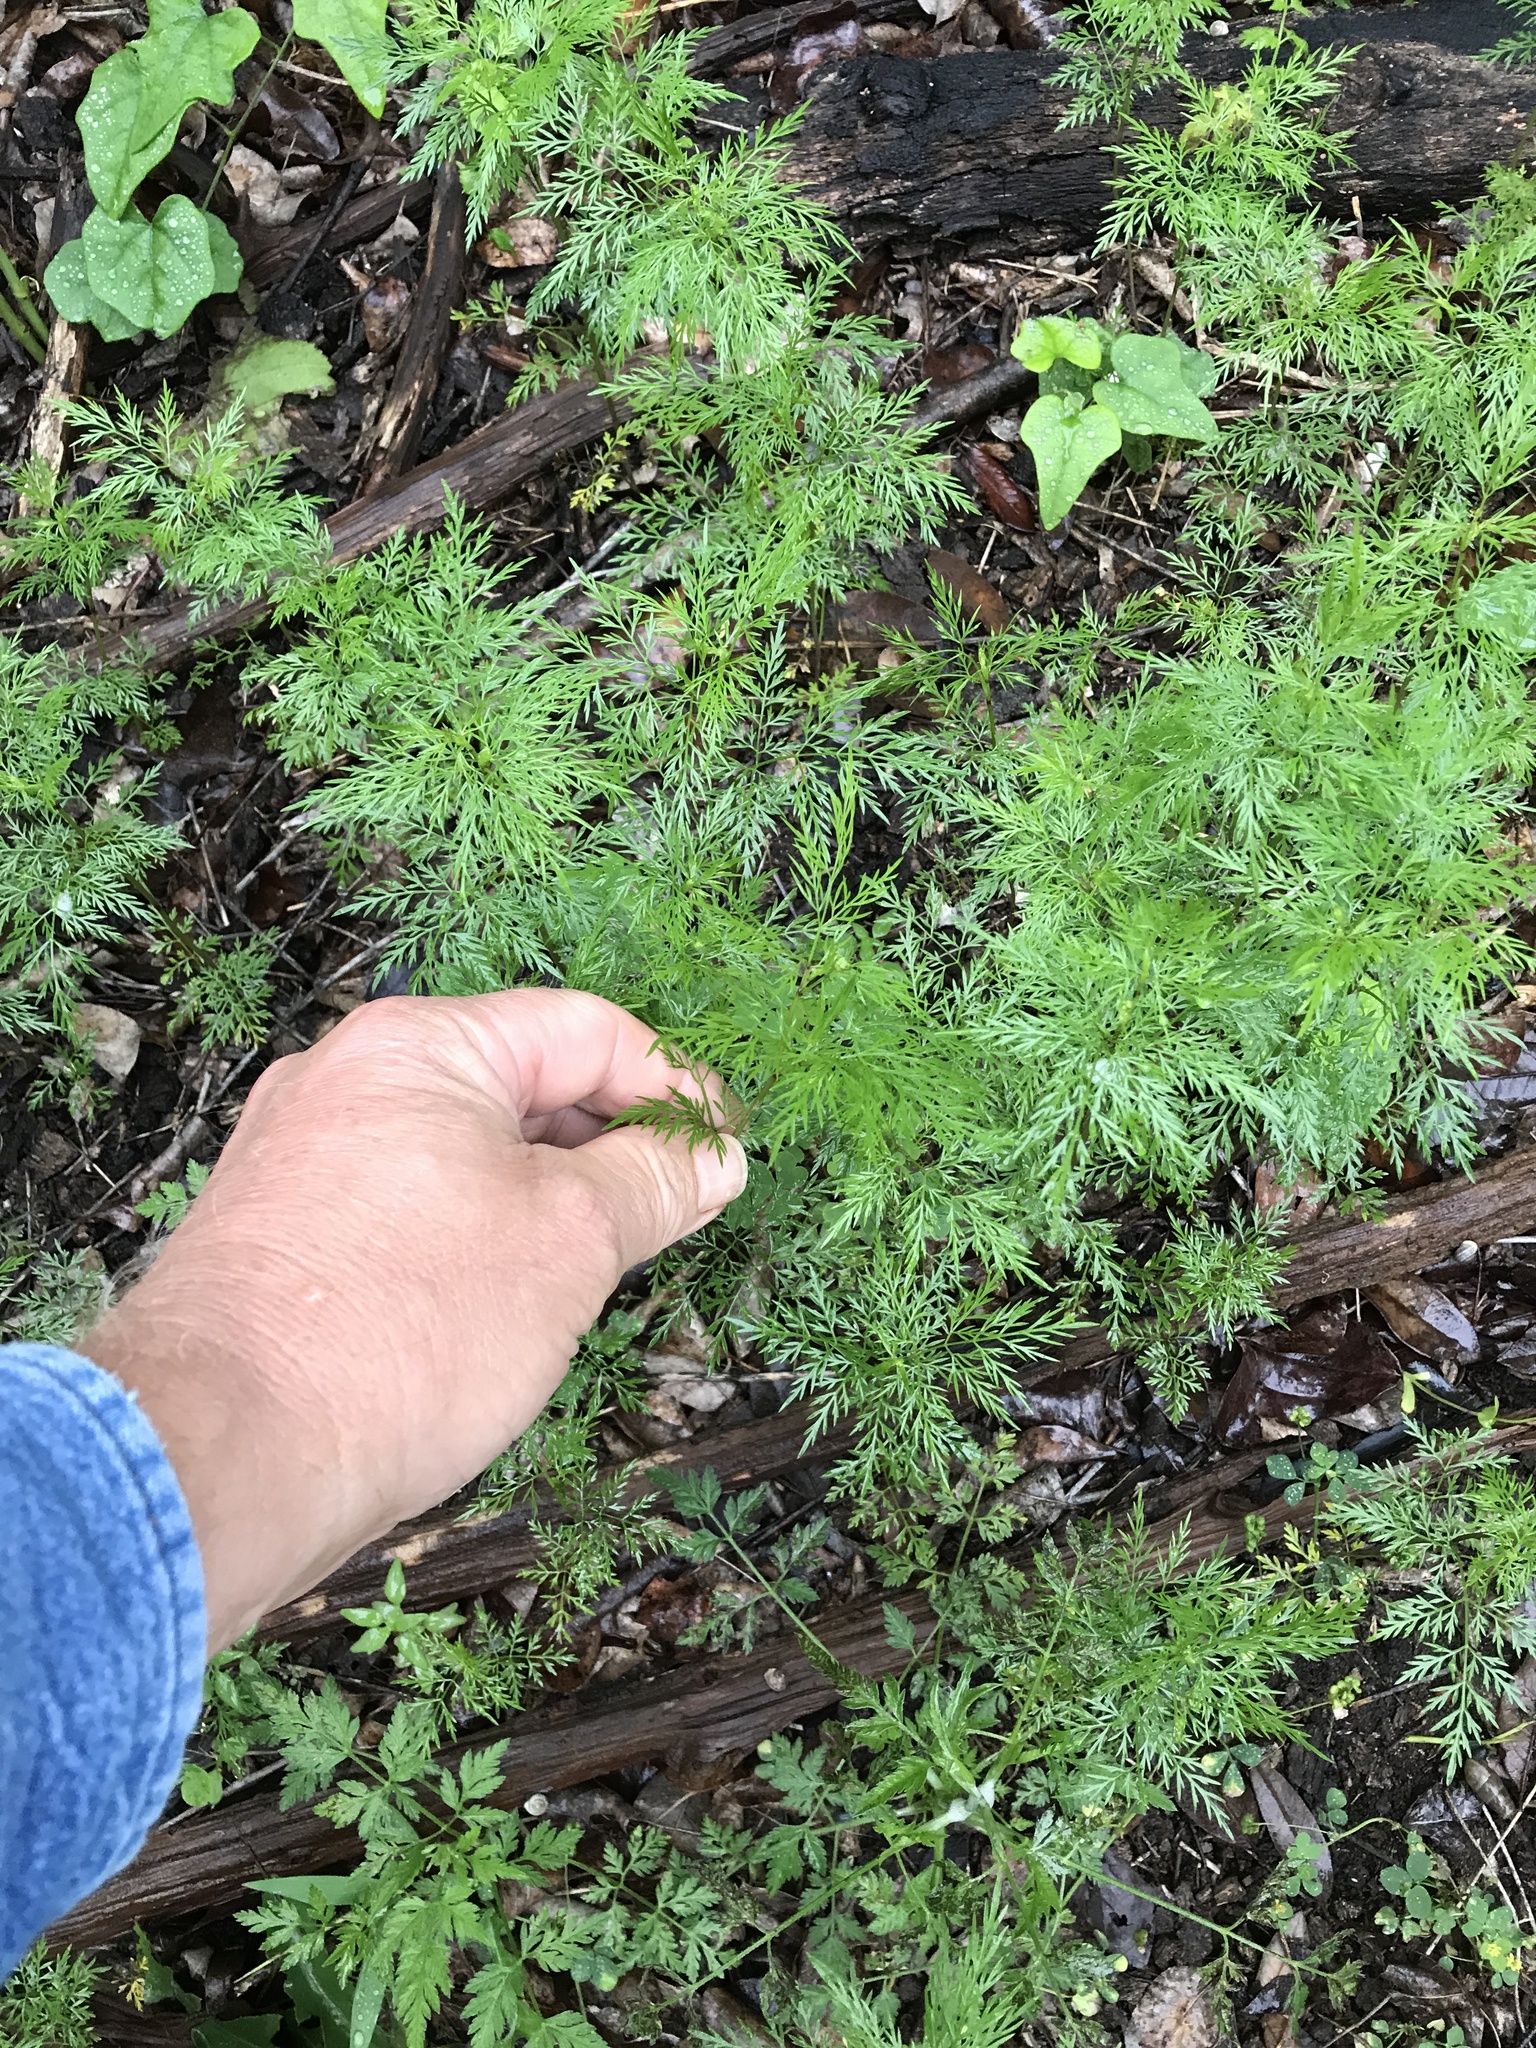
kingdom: Plantae
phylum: Tracheophyta
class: Magnoliopsida
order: Apiales
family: Apiaceae
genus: Trepocarpus
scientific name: Trepocarpus aethusae
